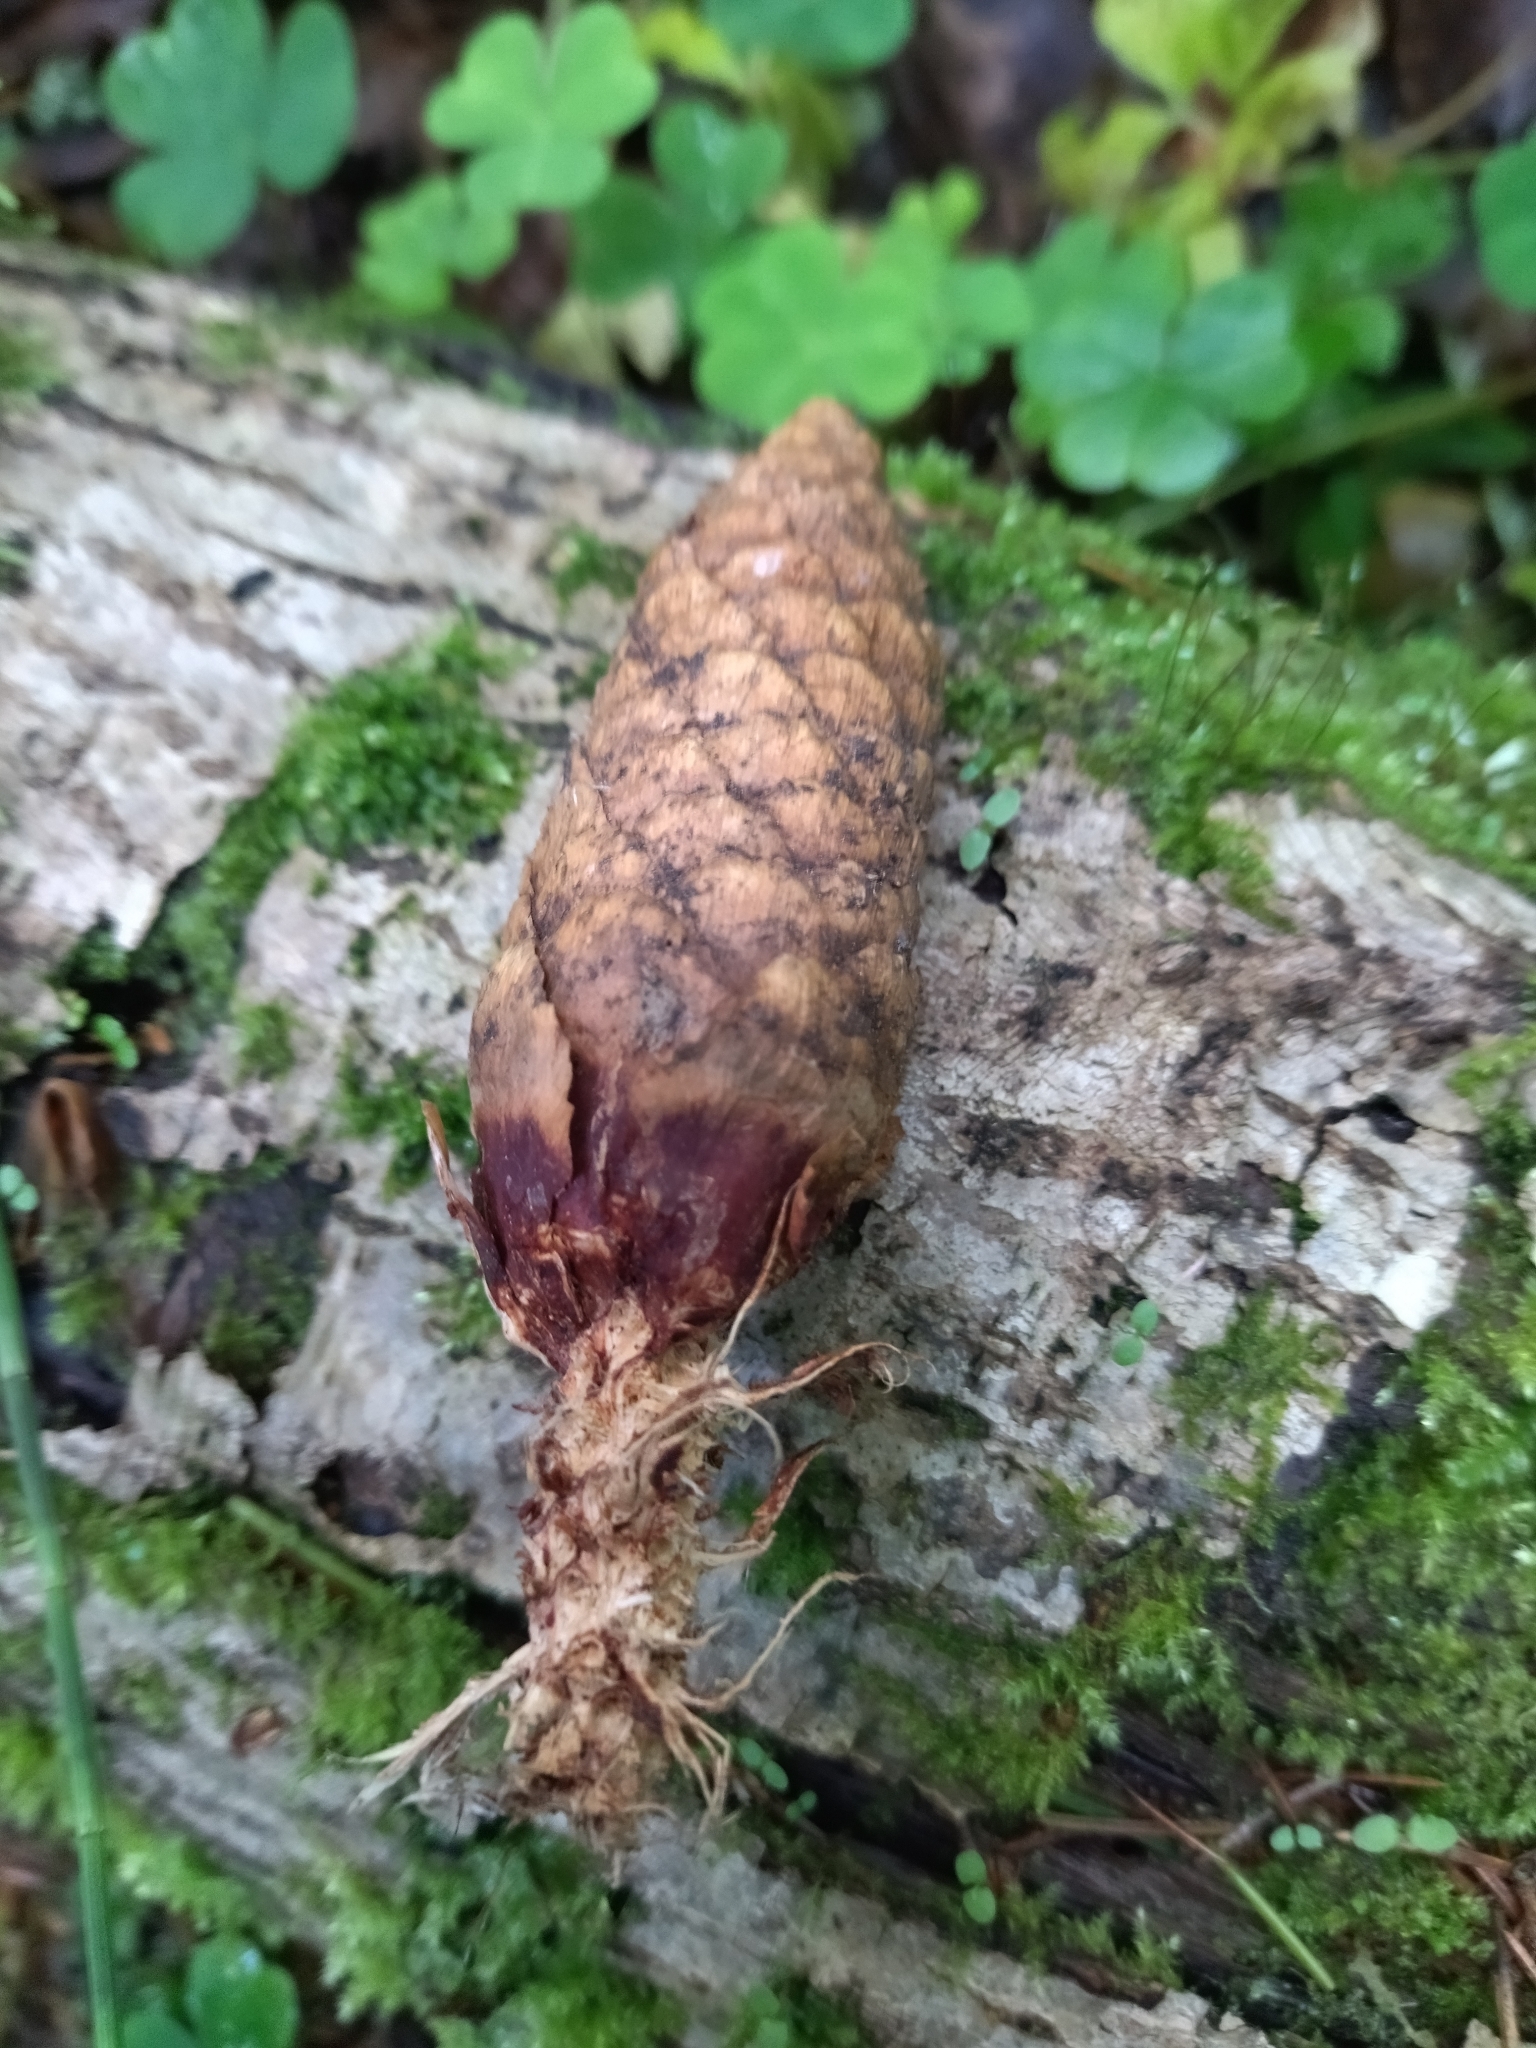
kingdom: Animalia
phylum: Chordata
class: Mammalia
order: Rodentia
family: Sciuridae
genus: Sciurus
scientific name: Sciurus vulgaris
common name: Eurasian red squirrel
